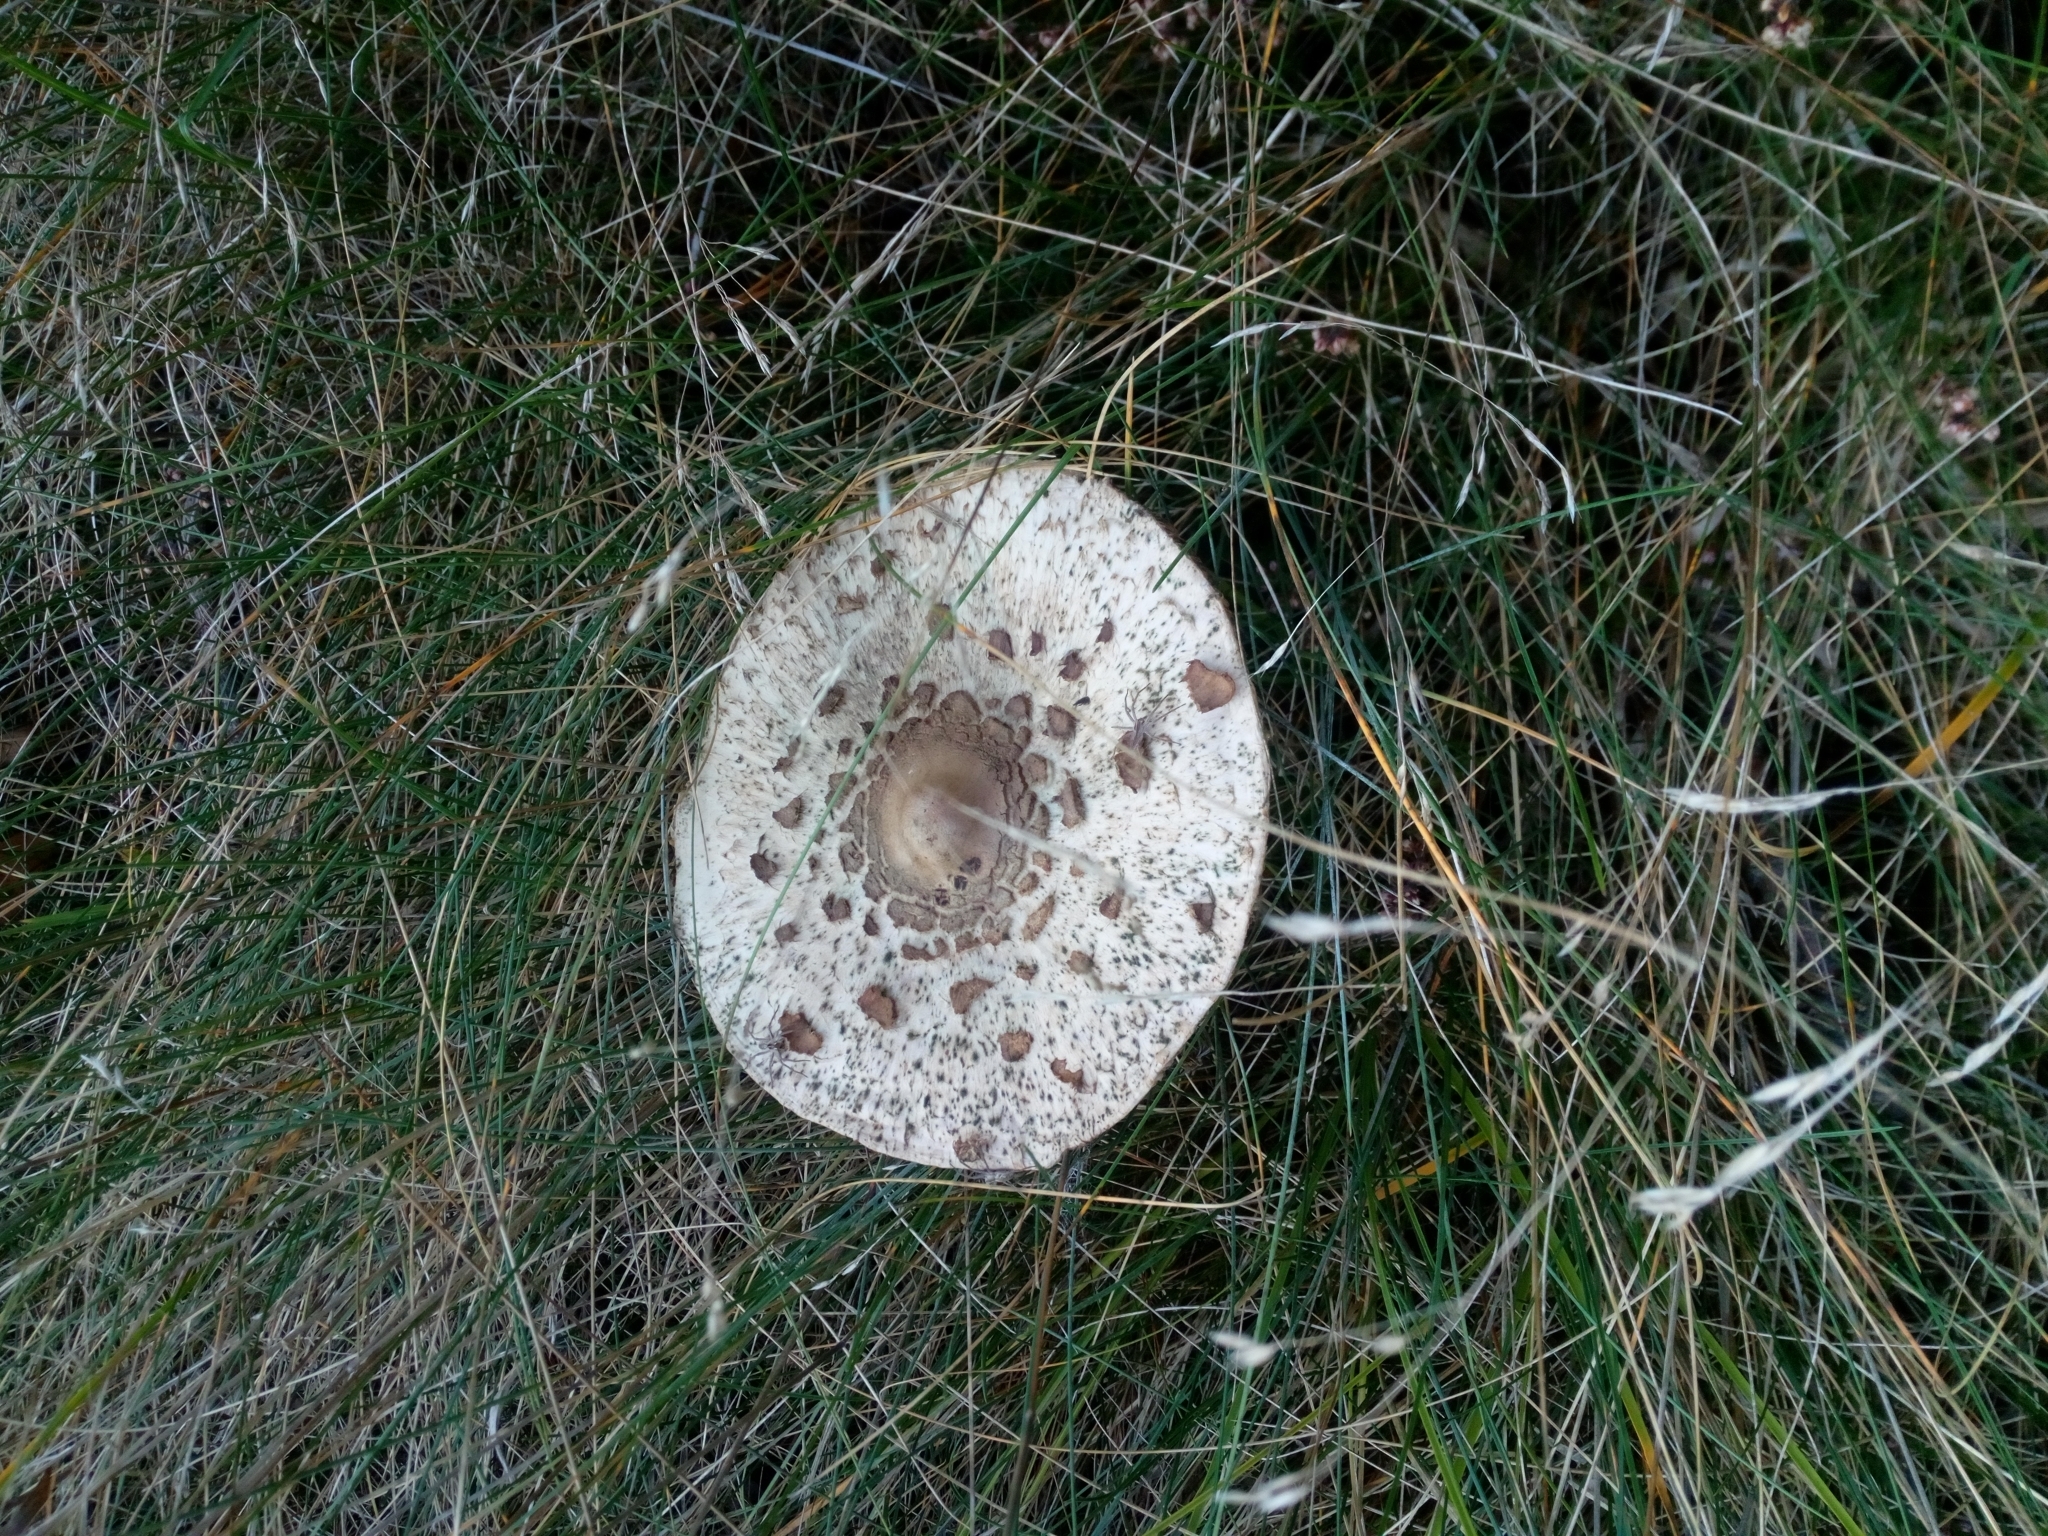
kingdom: Fungi
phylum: Basidiomycota
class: Agaricomycetes
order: Agaricales
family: Agaricaceae
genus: Macrolepiota
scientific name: Macrolepiota procera
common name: Parasol
